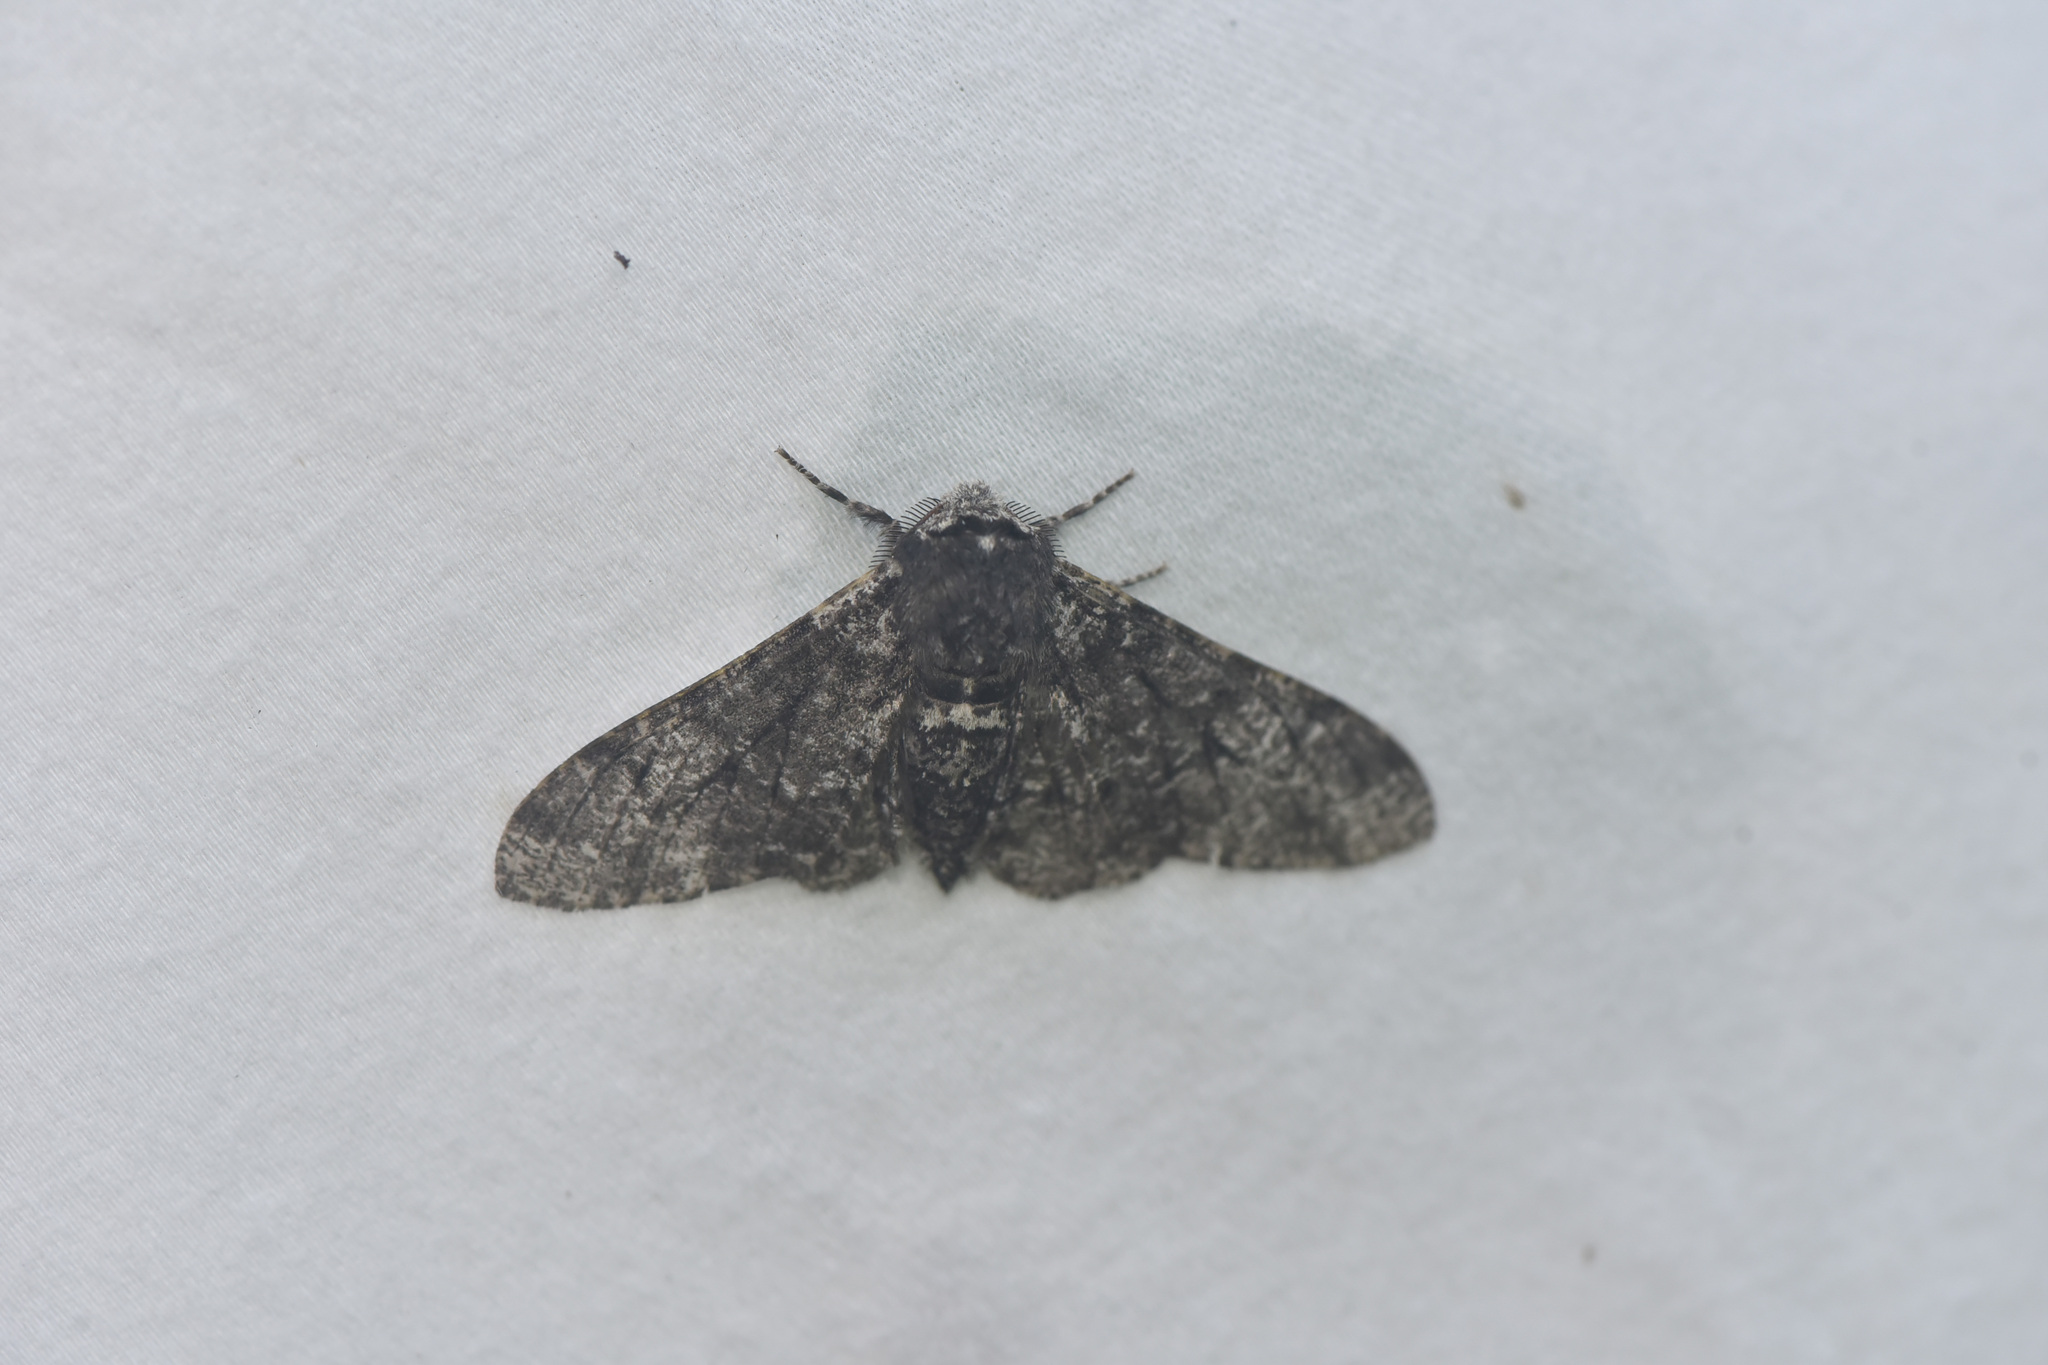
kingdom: Animalia
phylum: Arthropoda
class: Insecta
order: Lepidoptera
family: Geometridae
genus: Biston
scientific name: Biston betularia
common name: Peppered moth
